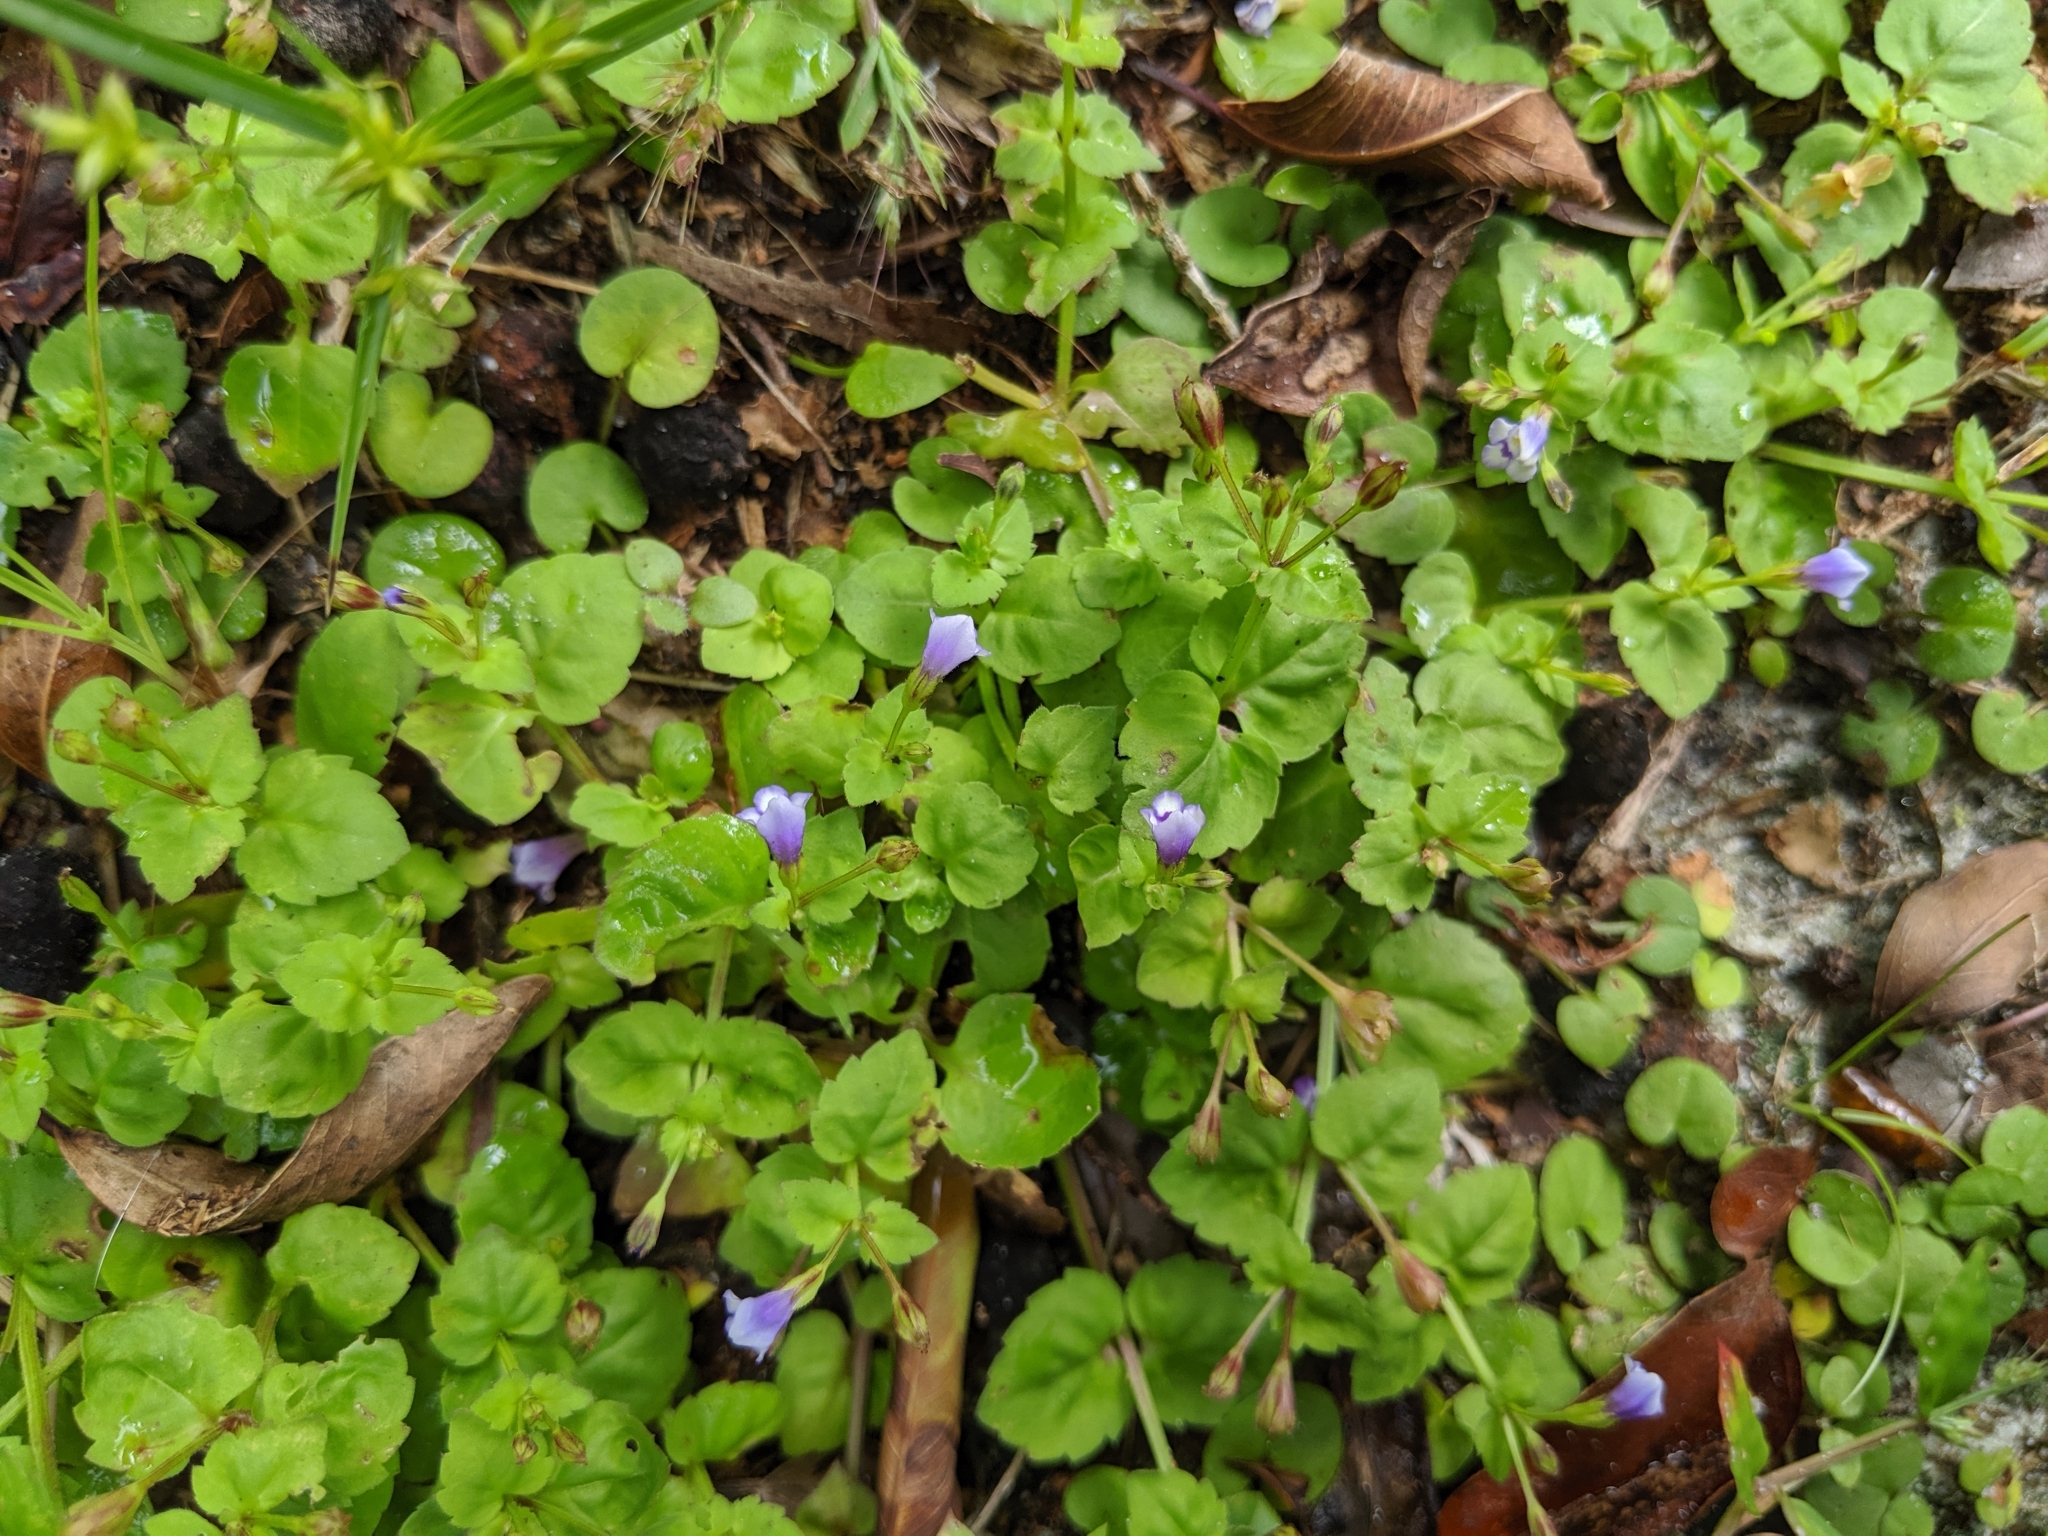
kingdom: Plantae
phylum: Tracheophyta
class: Magnoliopsida
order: Lamiales
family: Linderniaceae
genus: Torenia
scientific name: Torenia crustacea
